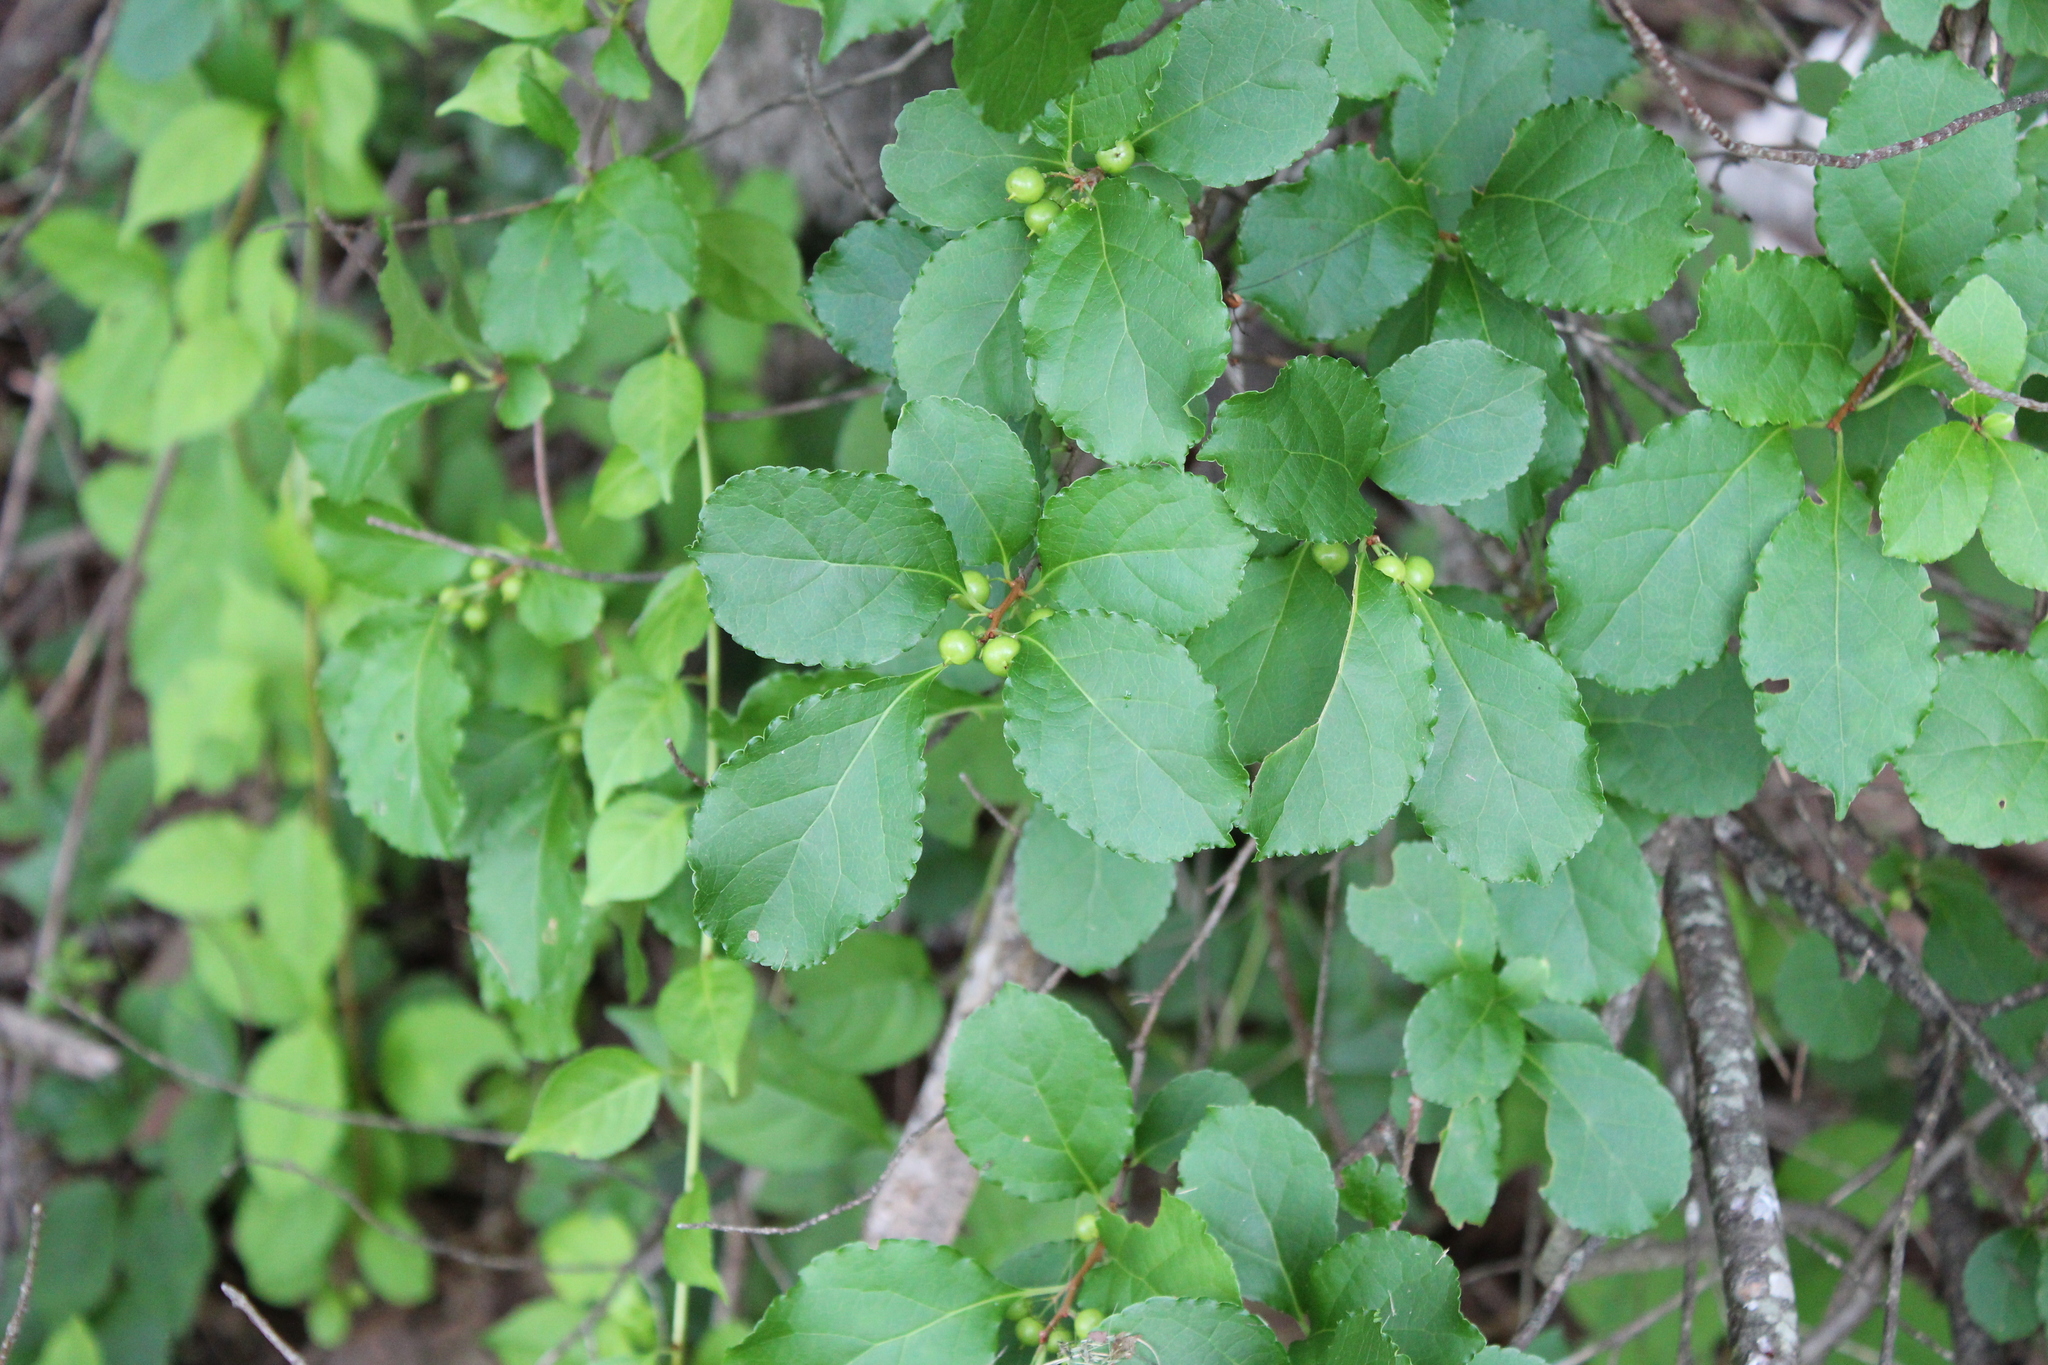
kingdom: Plantae
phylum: Tracheophyta
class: Magnoliopsida
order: Celastrales
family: Celastraceae
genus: Celastrus
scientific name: Celastrus orbiculatus
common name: Oriental bittersweet
